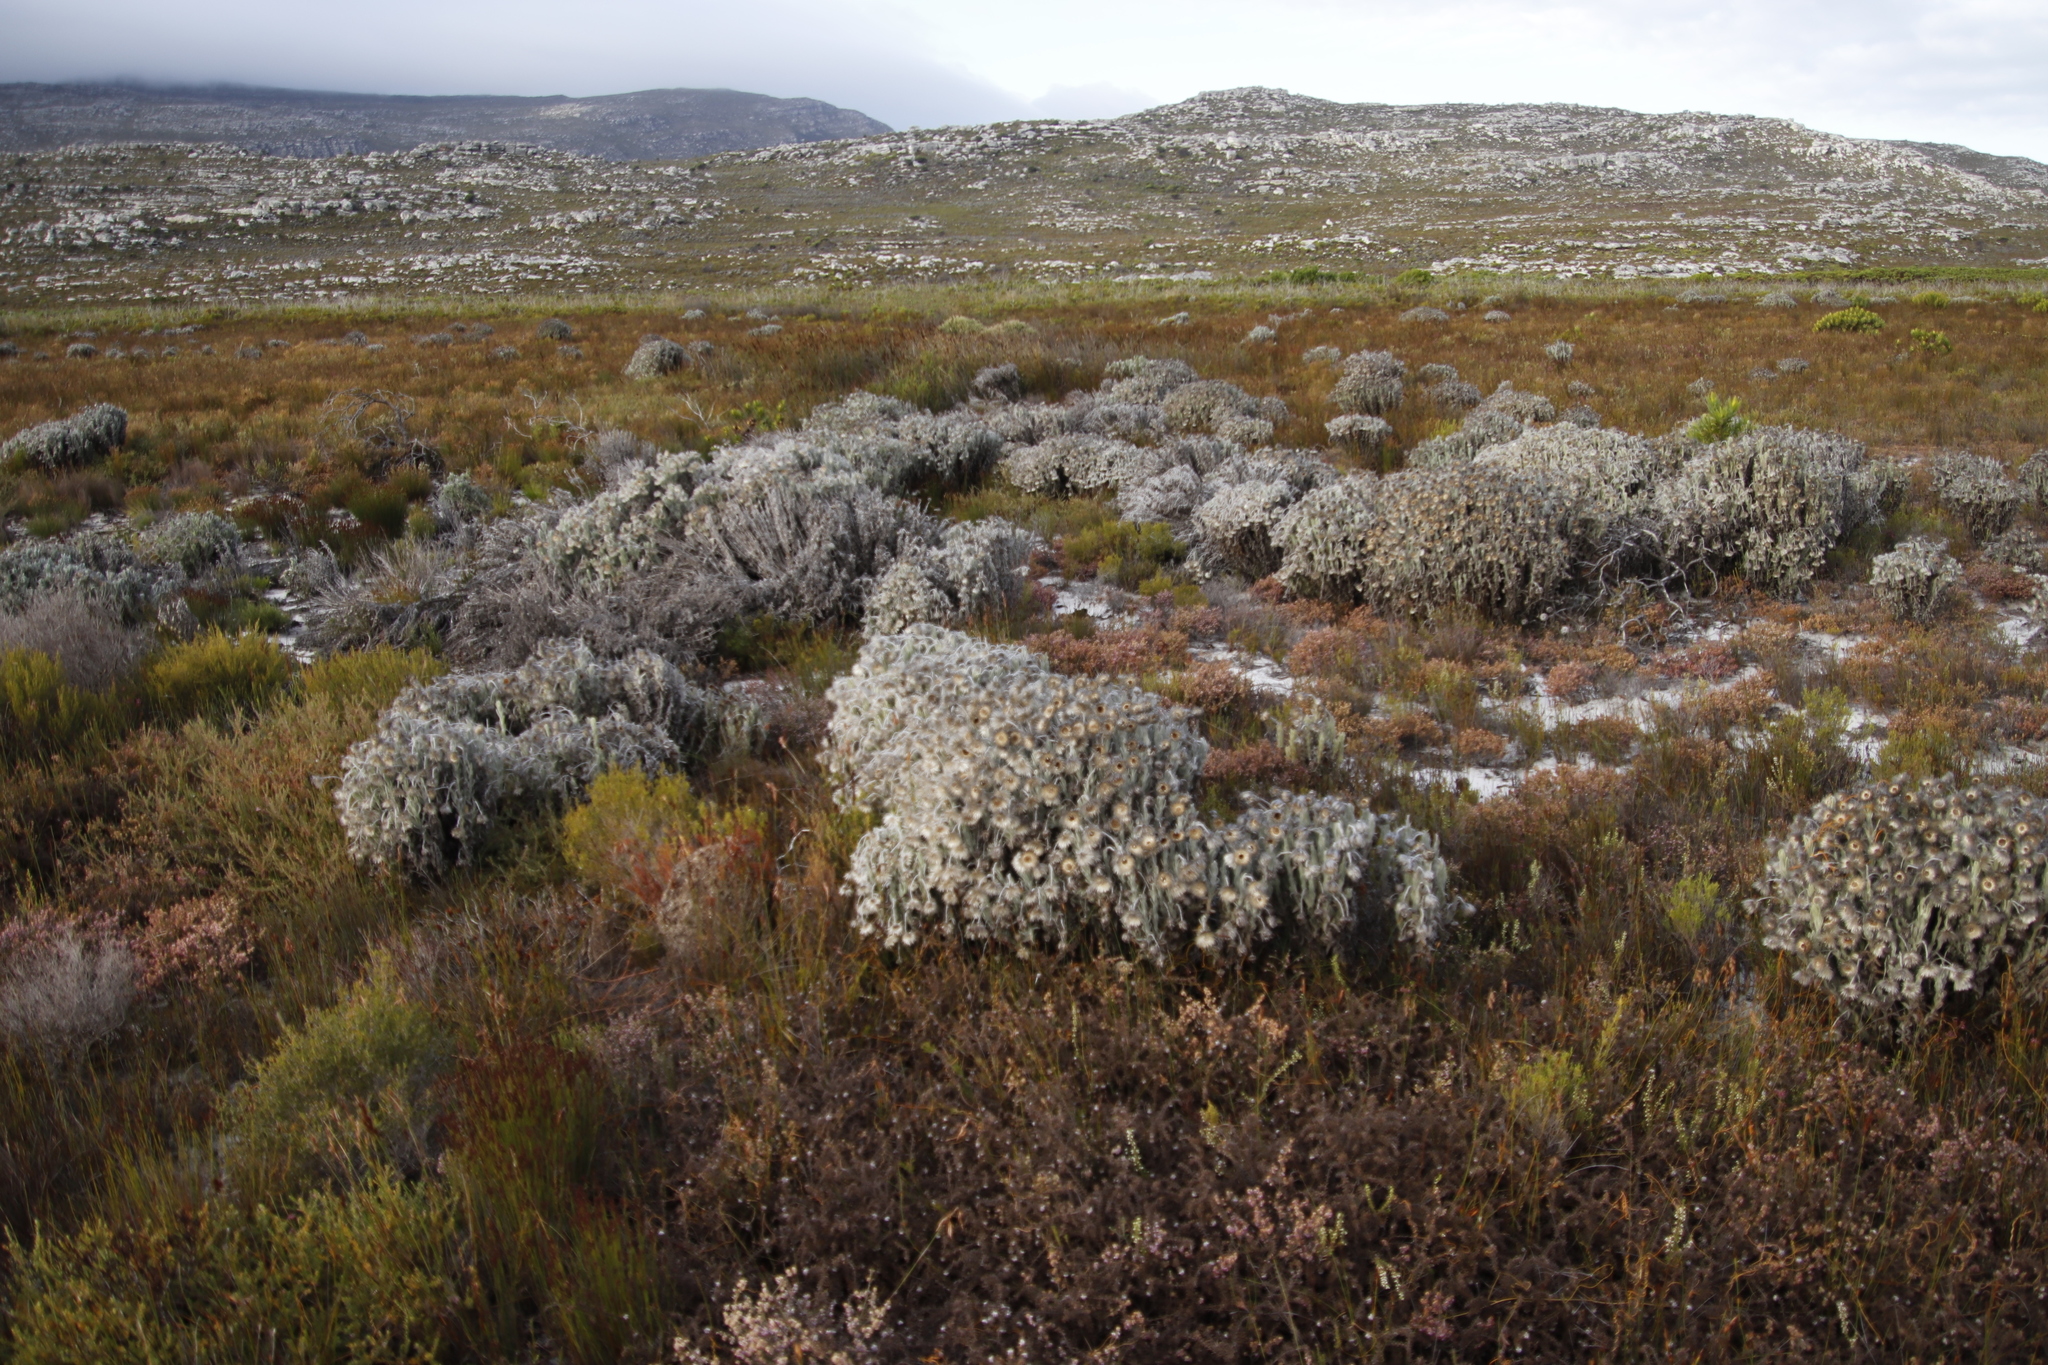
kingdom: Plantae
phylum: Tracheophyta
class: Magnoliopsida
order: Asterales
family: Asteraceae
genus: Syncarpha
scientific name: Syncarpha vestita
